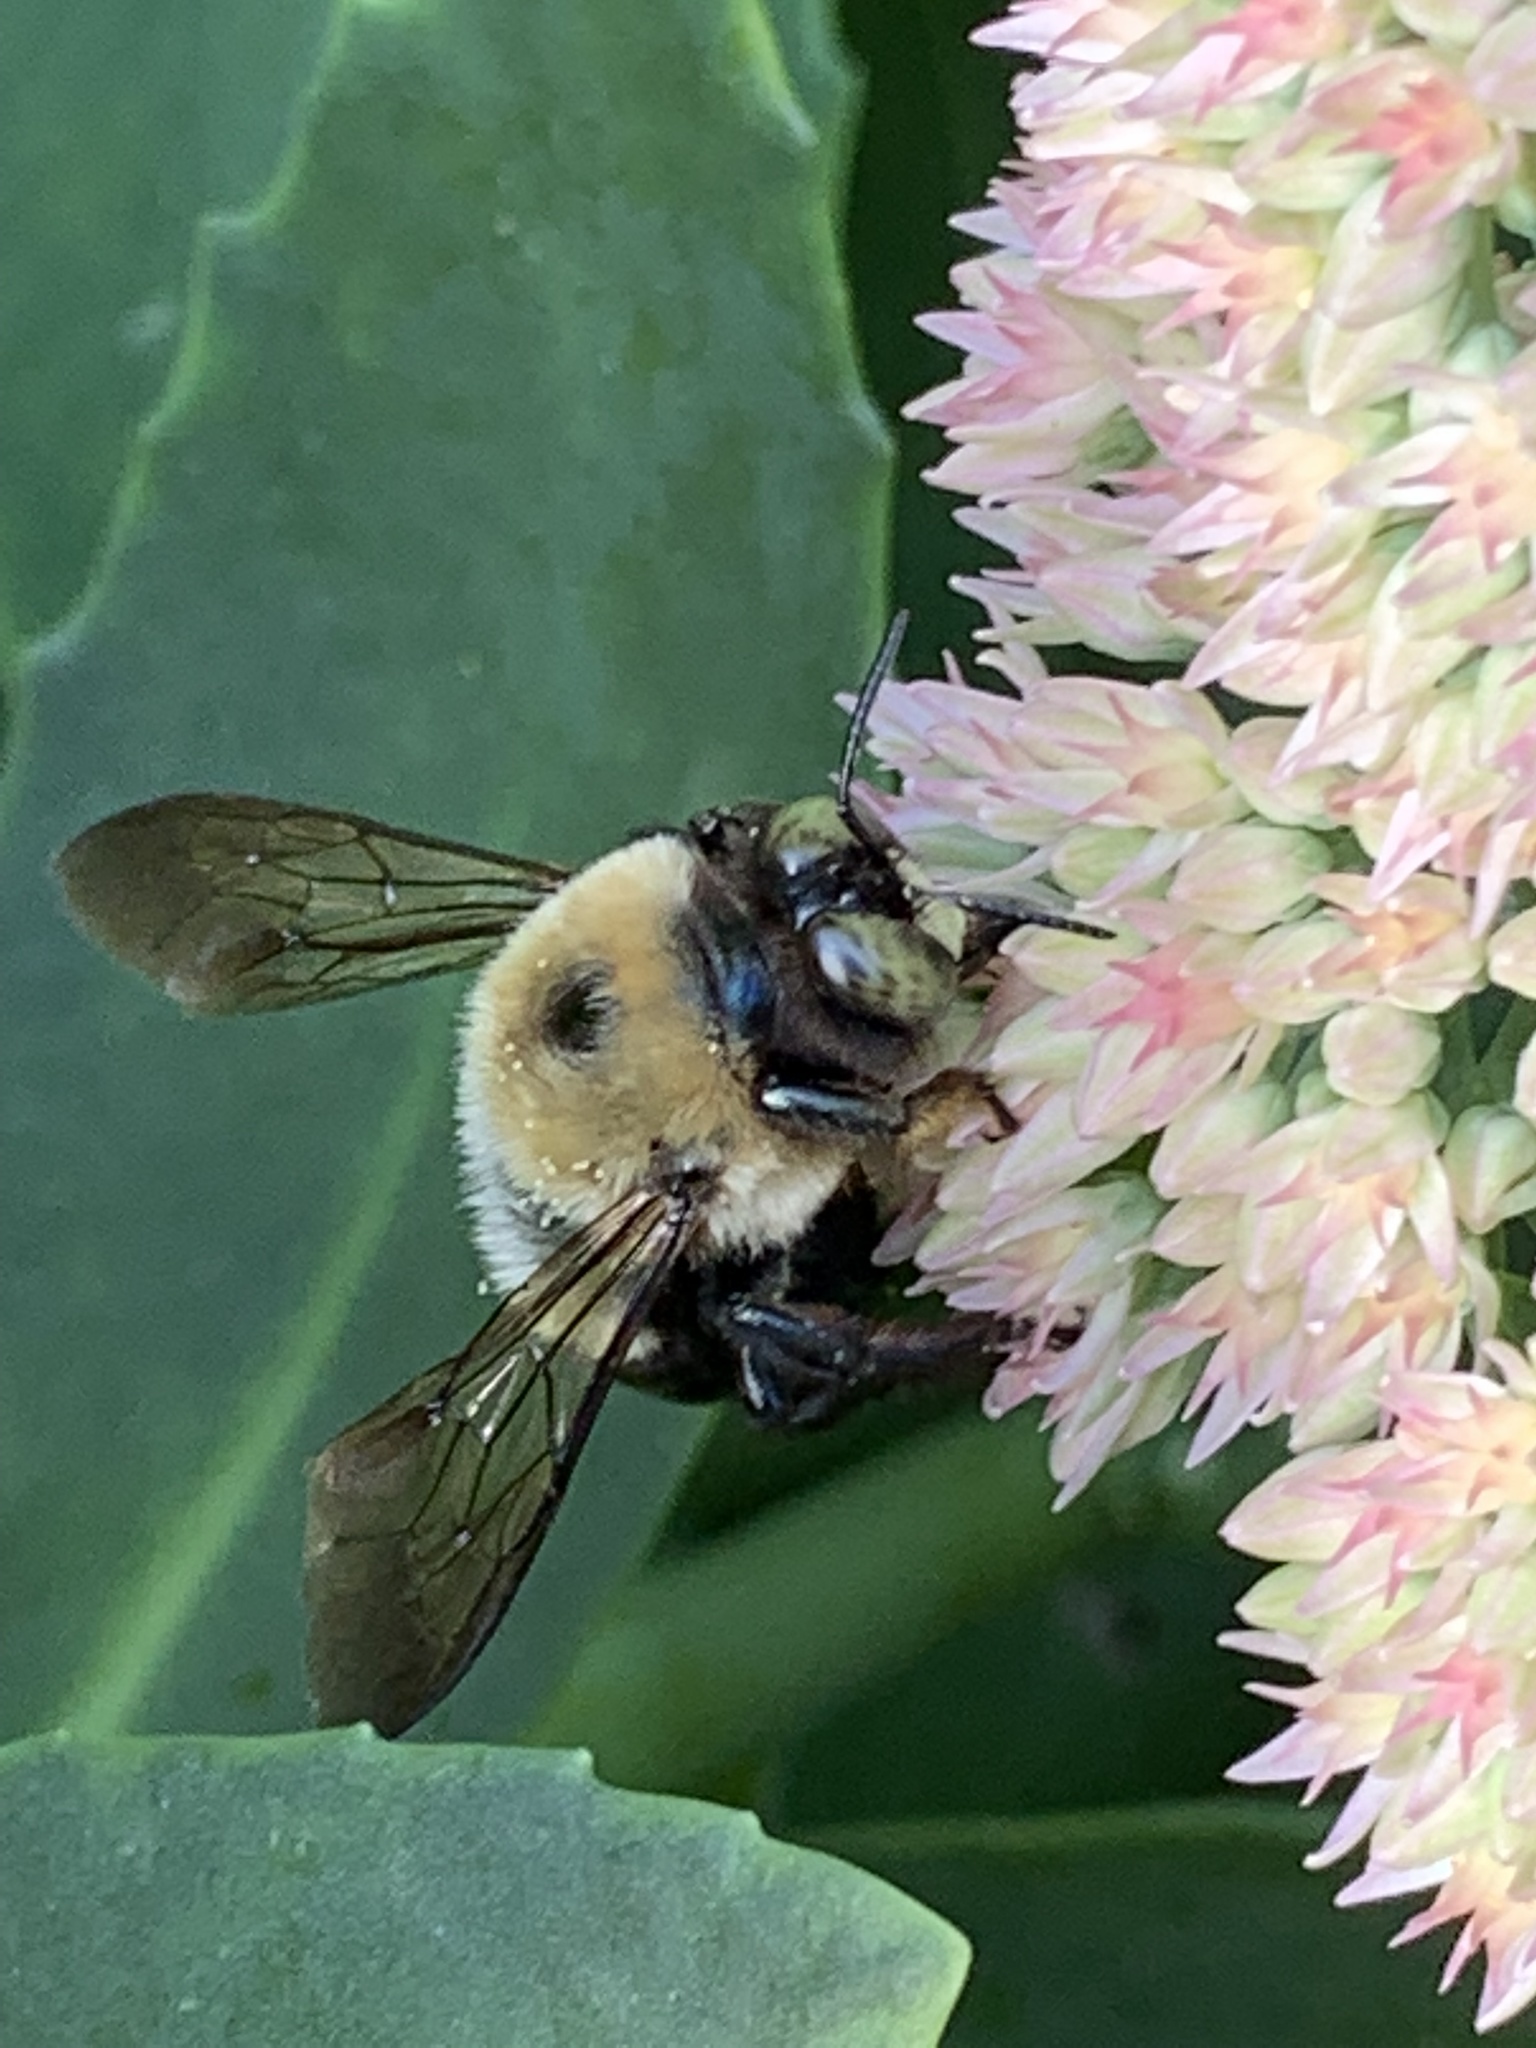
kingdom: Animalia
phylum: Arthropoda
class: Insecta
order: Hymenoptera
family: Apidae
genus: Xylocopa
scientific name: Xylocopa virginica
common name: Carpenter bee
